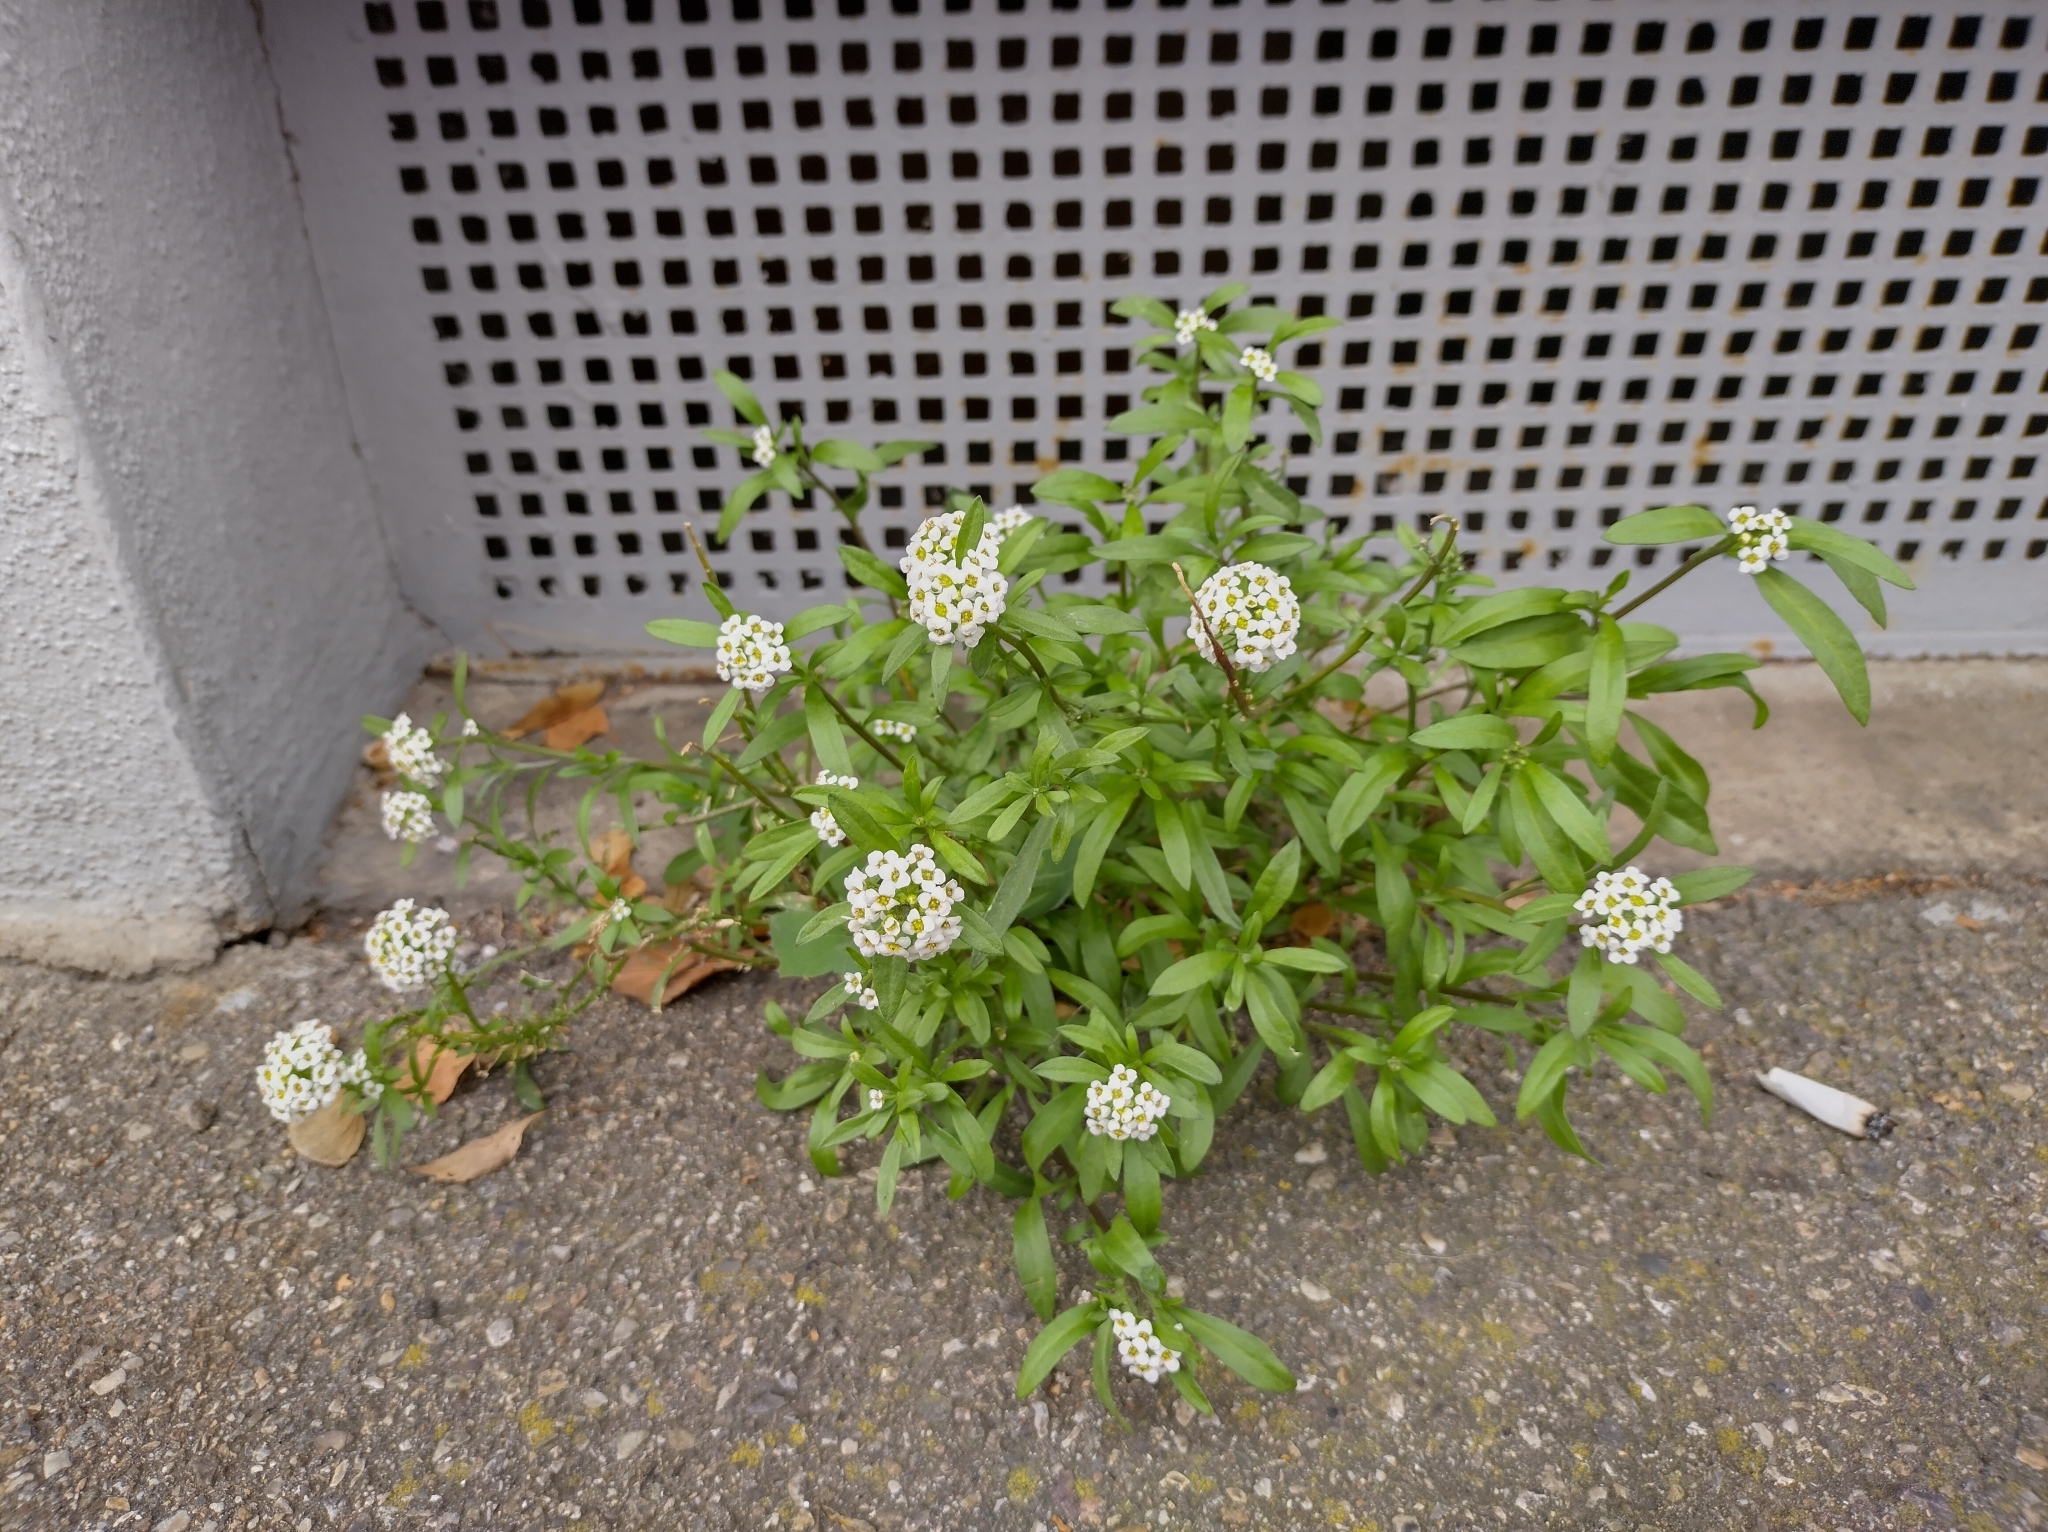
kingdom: Plantae
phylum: Tracheophyta
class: Magnoliopsida
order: Brassicales
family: Brassicaceae
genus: Lobularia
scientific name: Lobularia maritima
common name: Sweet alison
